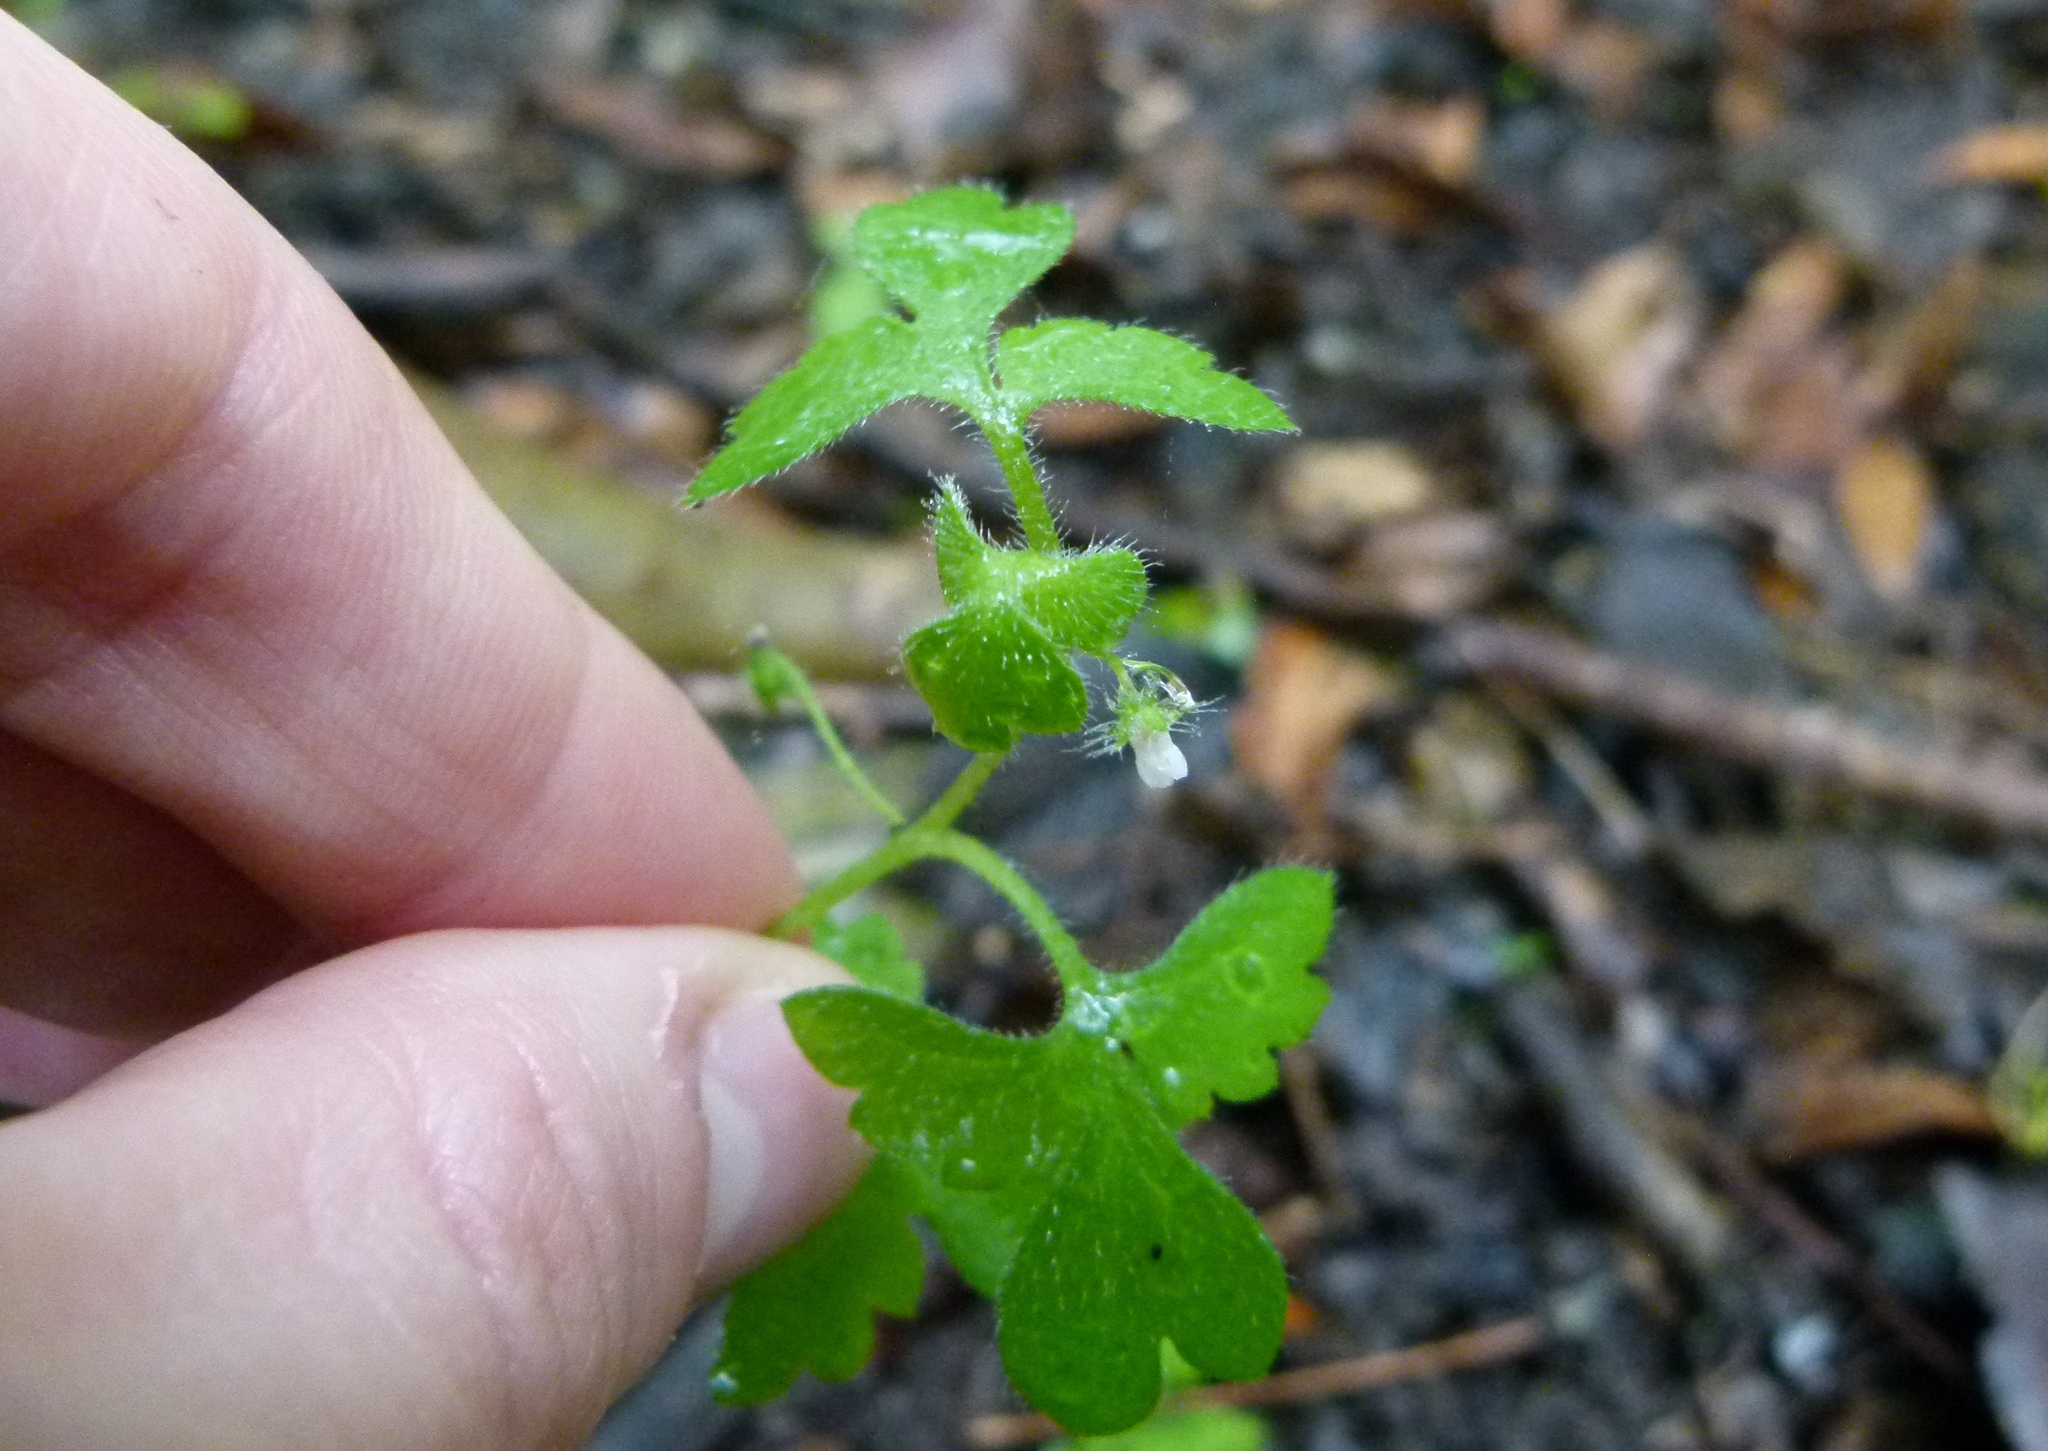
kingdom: Plantae
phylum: Tracheophyta
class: Magnoliopsida
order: Boraginales
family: Hydrophyllaceae
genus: Nemophila
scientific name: Nemophila aphylla
